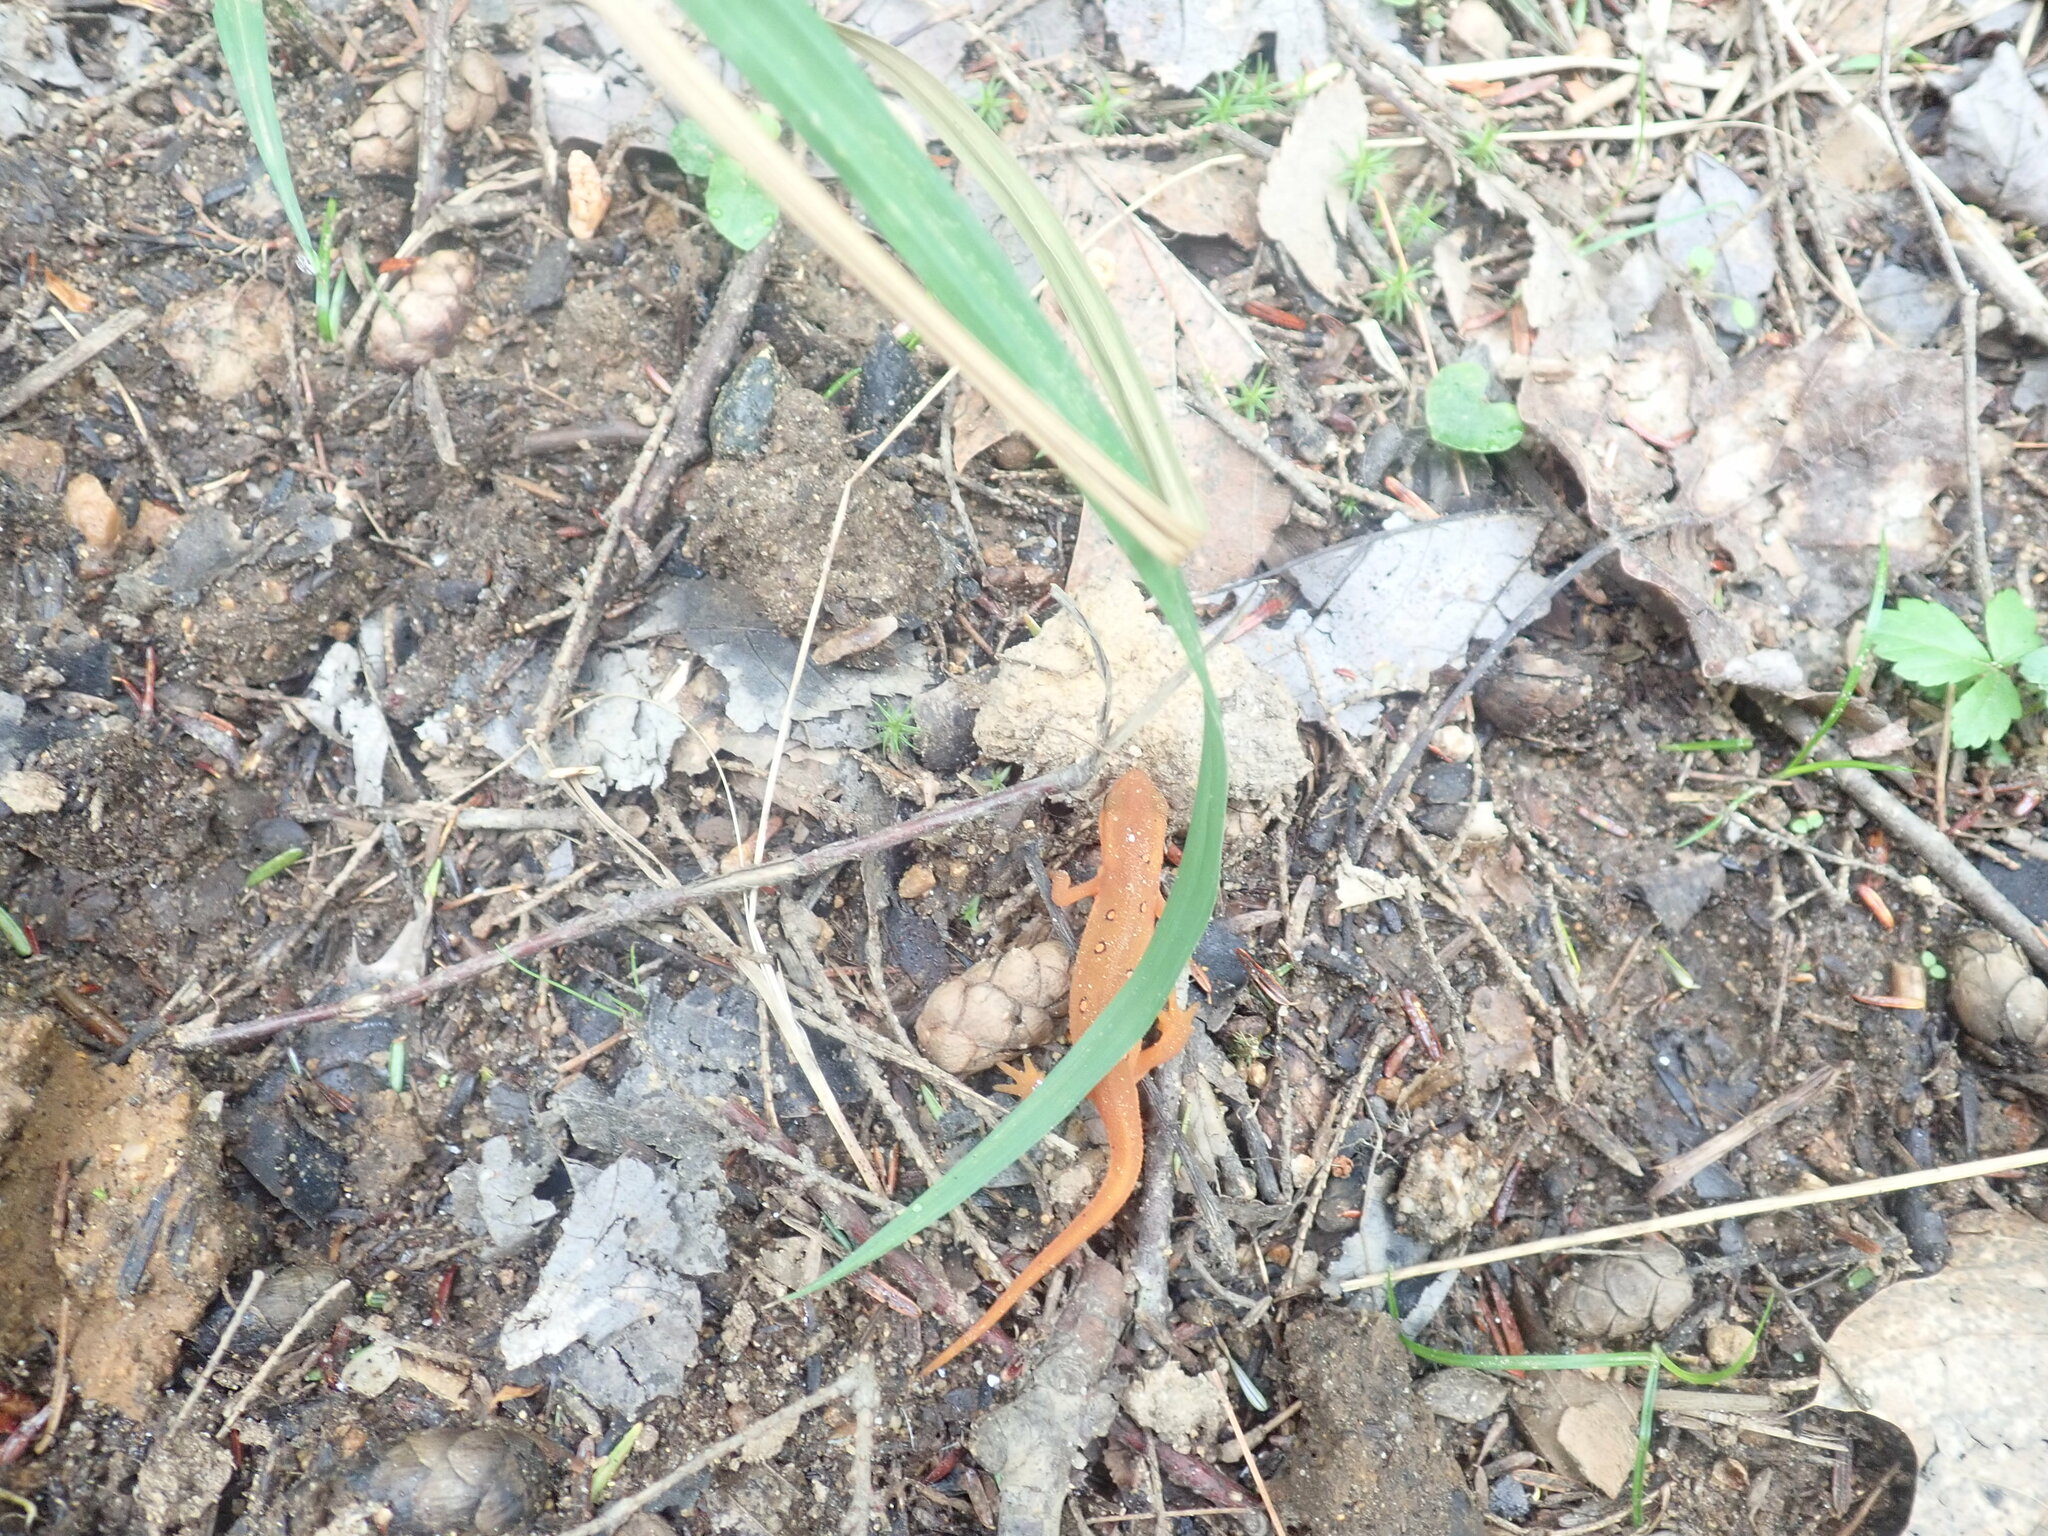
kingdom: Animalia
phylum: Chordata
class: Amphibia
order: Caudata
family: Salamandridae
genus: Notophthalmus
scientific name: Notophthalmus viridescens
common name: Eastern newt
